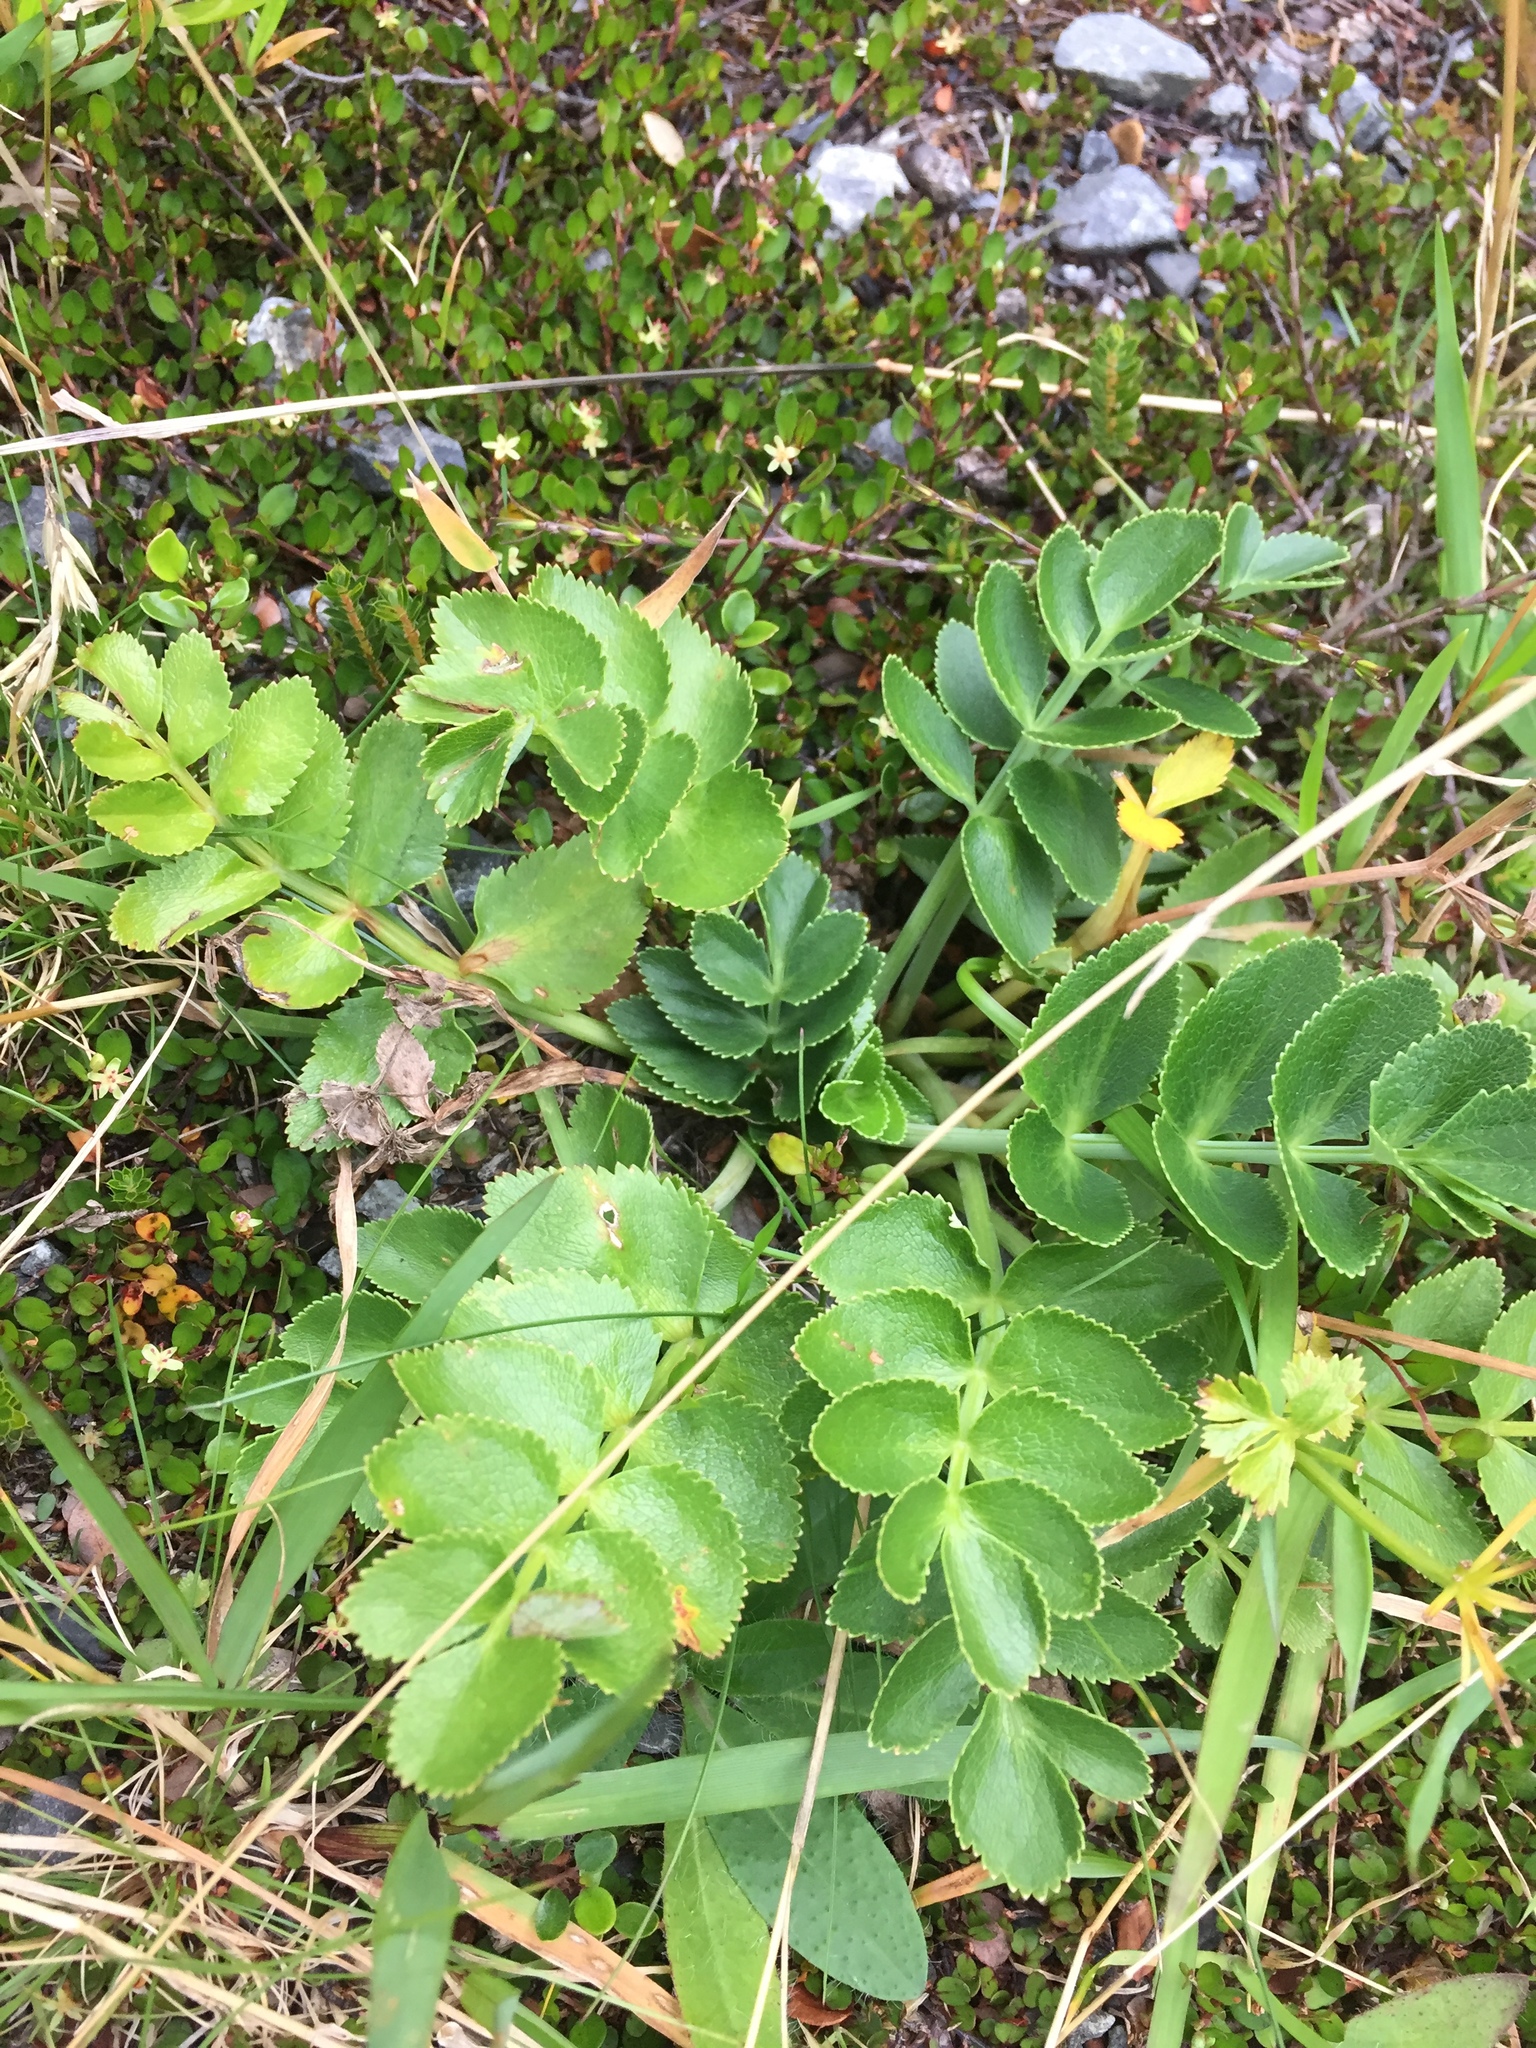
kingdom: Plantae
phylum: Tracheophyta
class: Magnoliopsida
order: Apiales
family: Apiaceae
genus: Gingidia
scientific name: Gingidia montana
